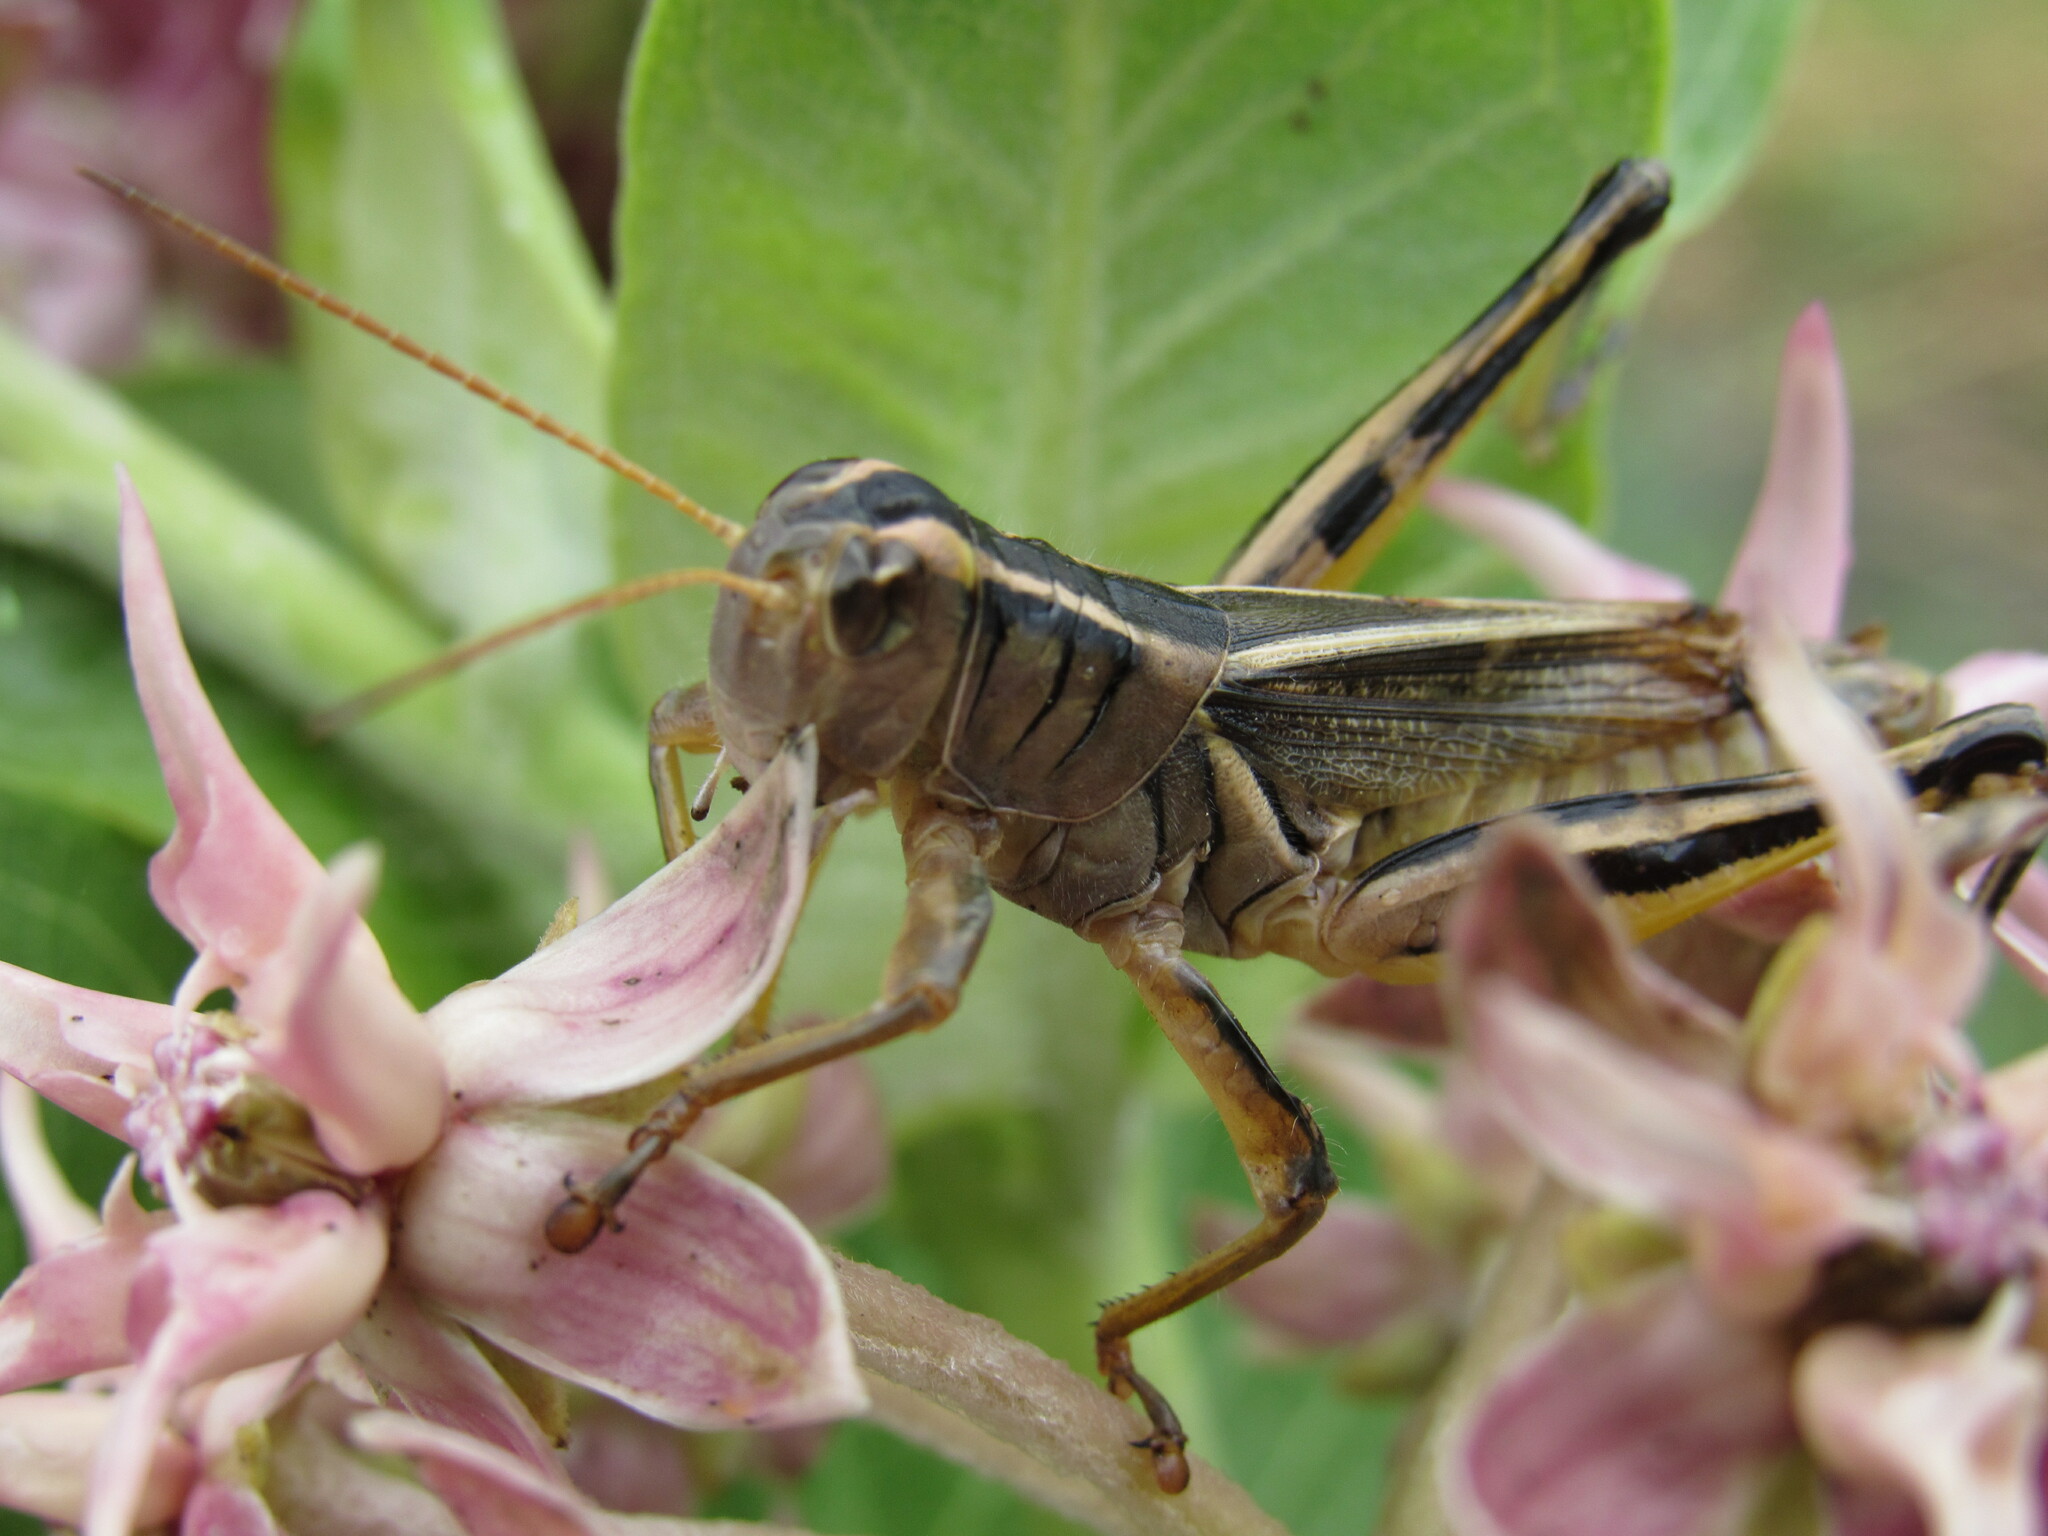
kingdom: Animalia
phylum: Arthropoda
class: Insecta
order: Orthoptera
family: Acrididae
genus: Melanoplus
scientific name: Melanoplus bivittatus
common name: Two-striped grasshopper
